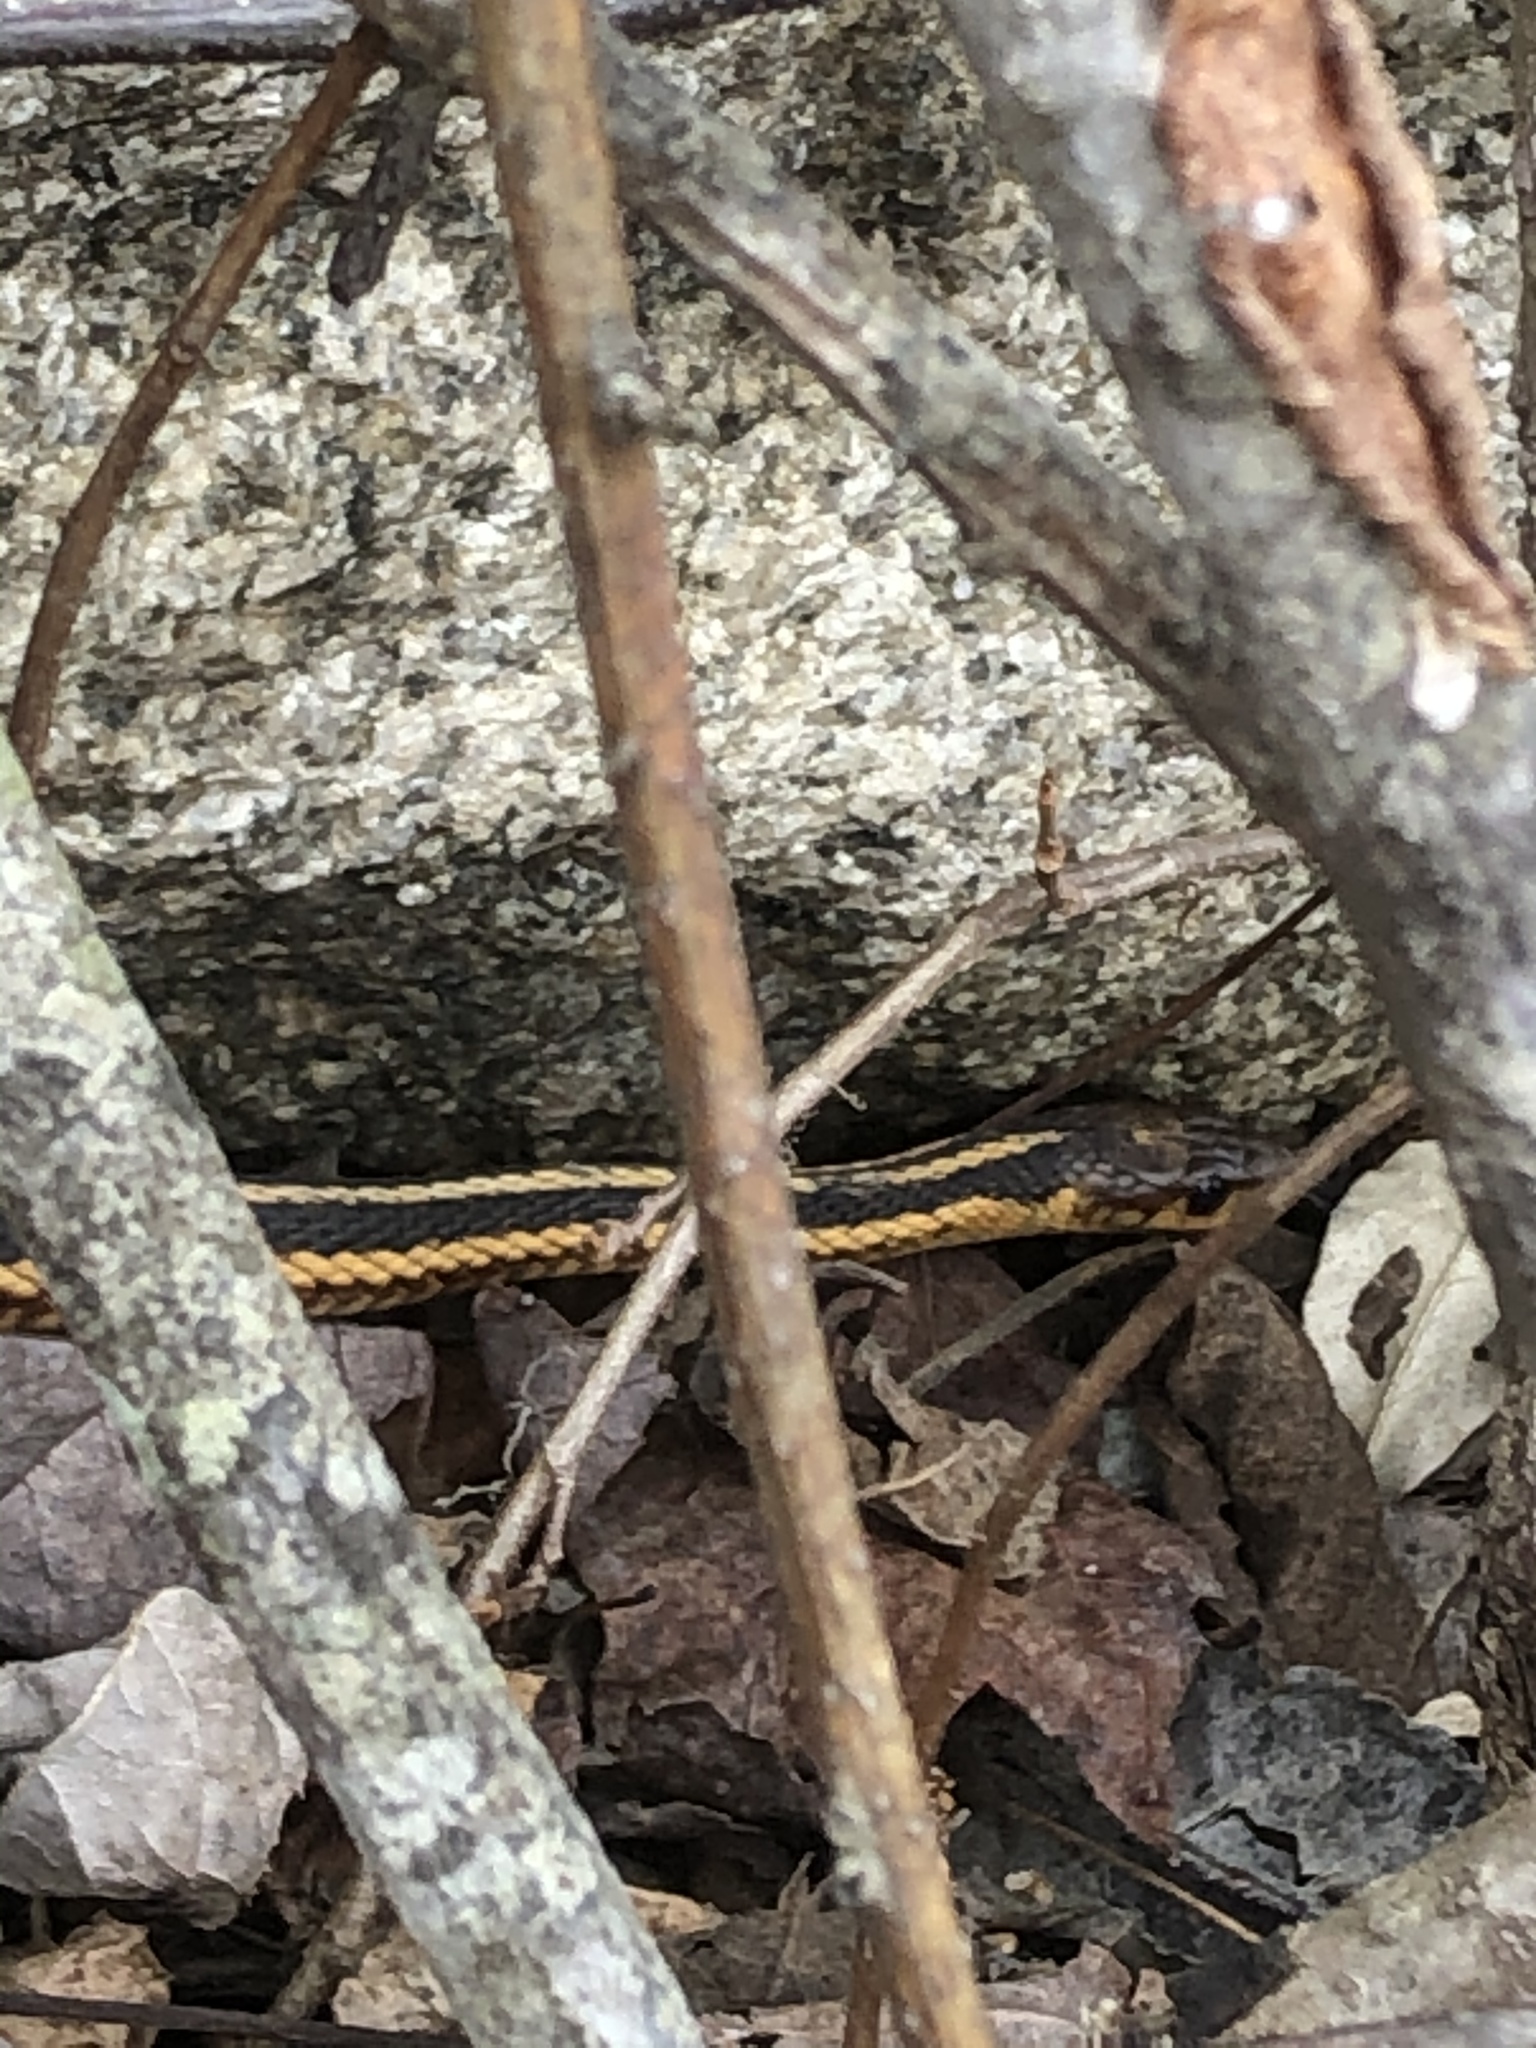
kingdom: Animalia
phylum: Chordata
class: Squamata
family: Colubridae
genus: Thamnophis
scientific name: Thamnophis sirtalis
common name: Common garter snake
